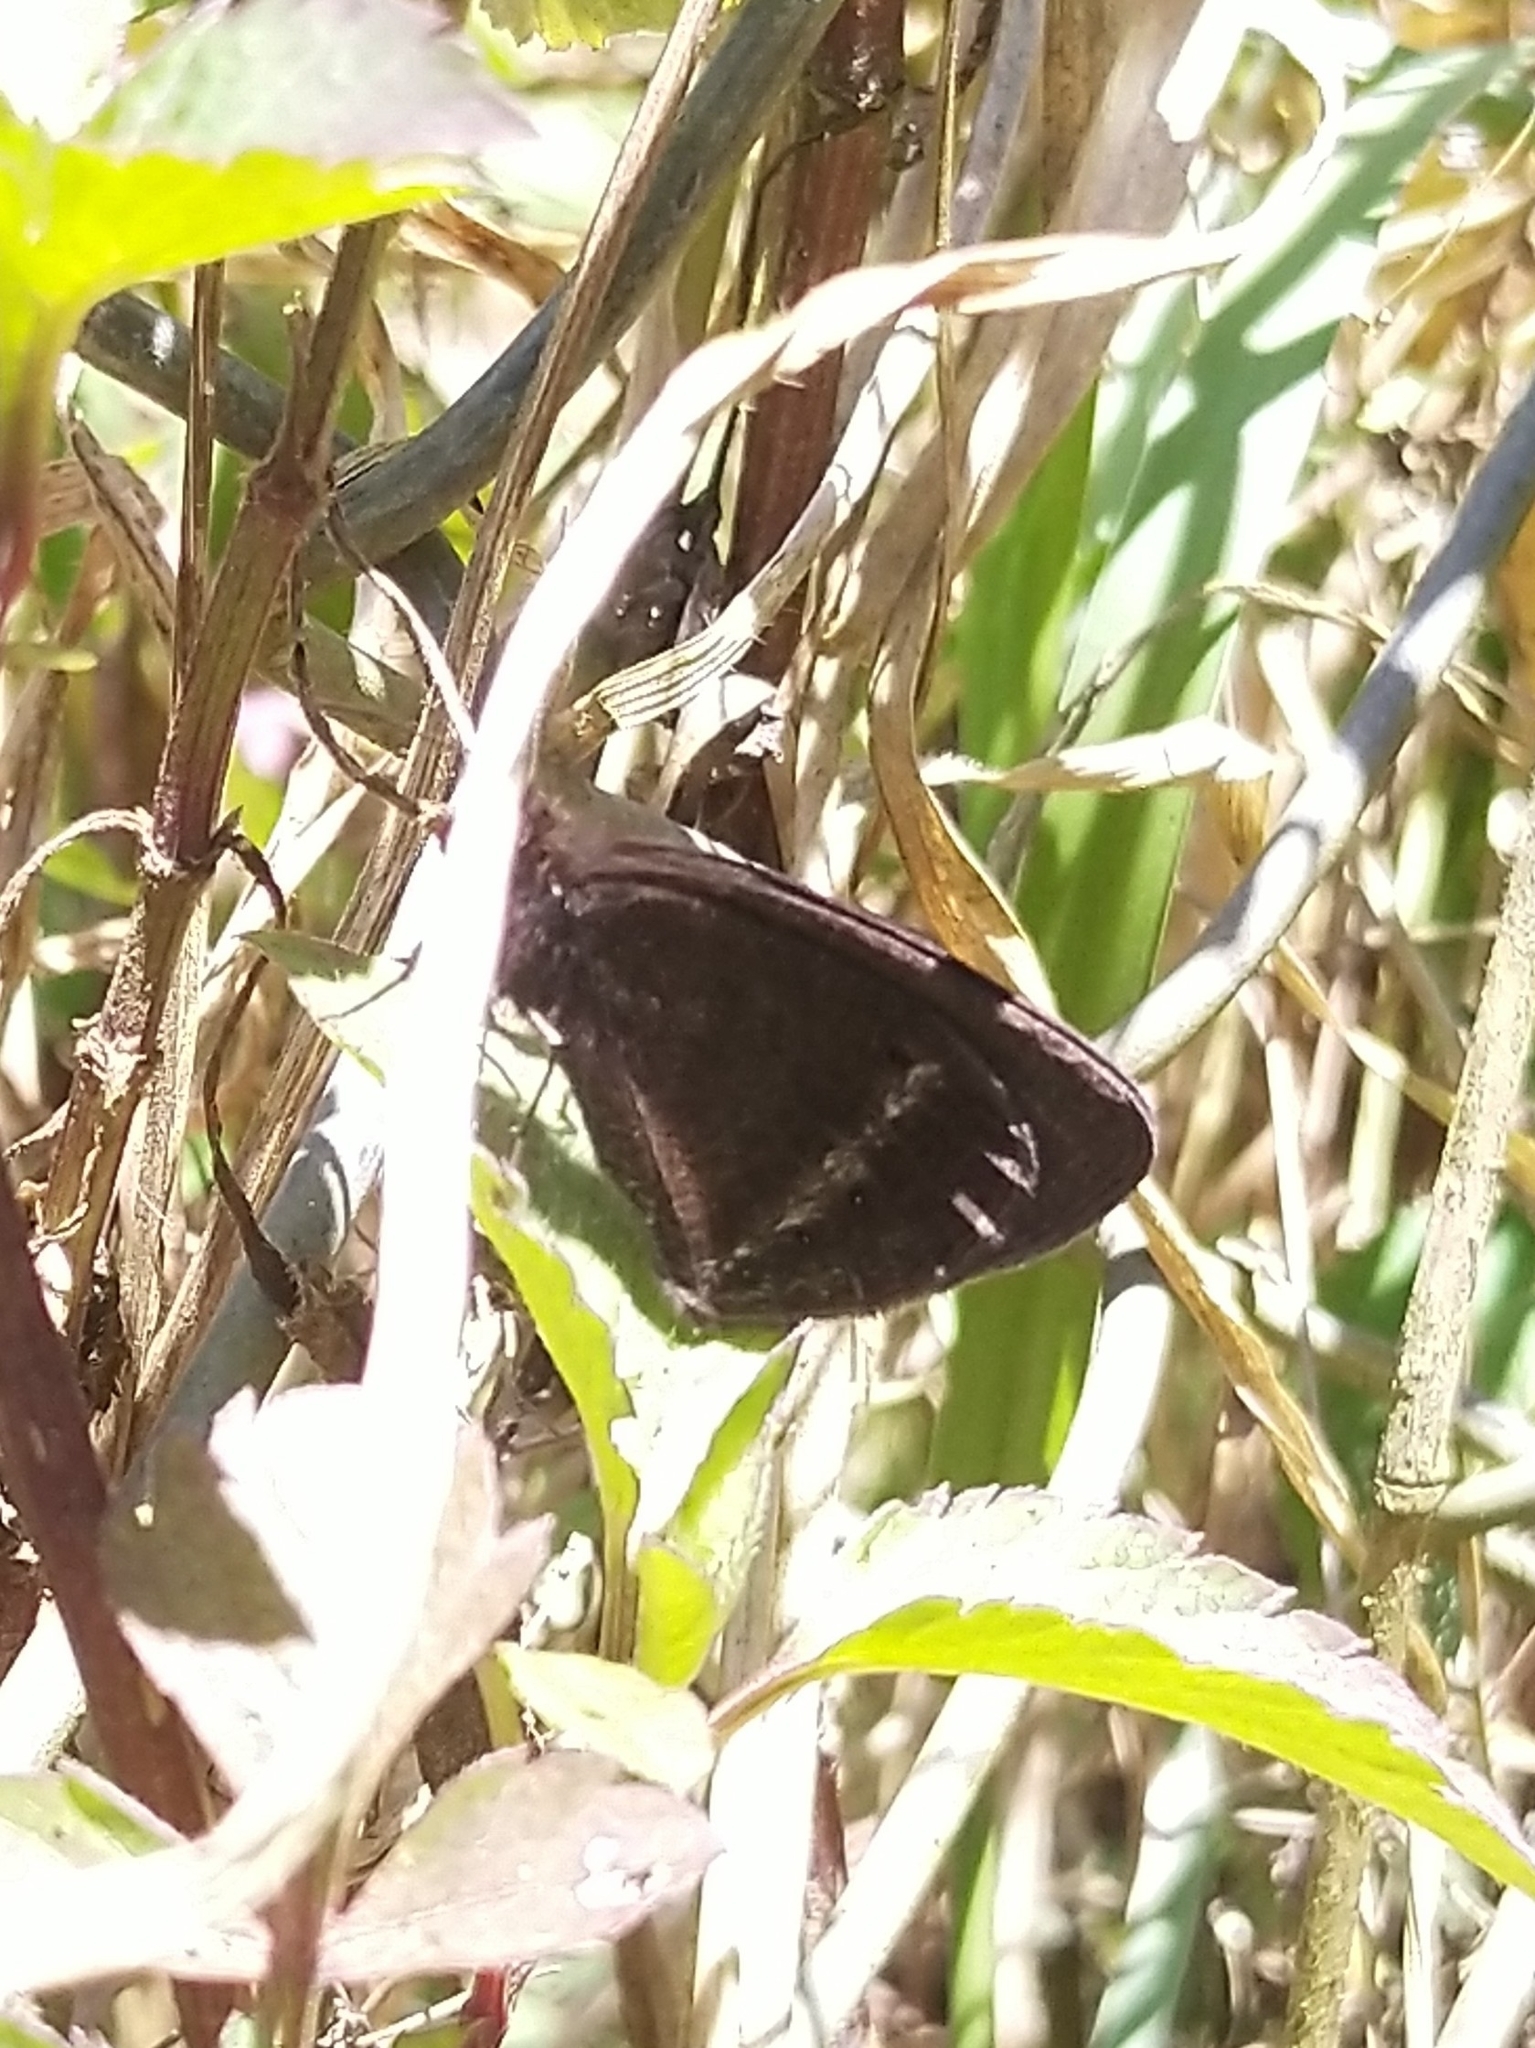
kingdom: Animalia
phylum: Arthropoda
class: Insecta
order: Lepidoptera
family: Nymphalidae
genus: Ypthima
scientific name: Ypthima ypthimoides
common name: Palni four-ring
